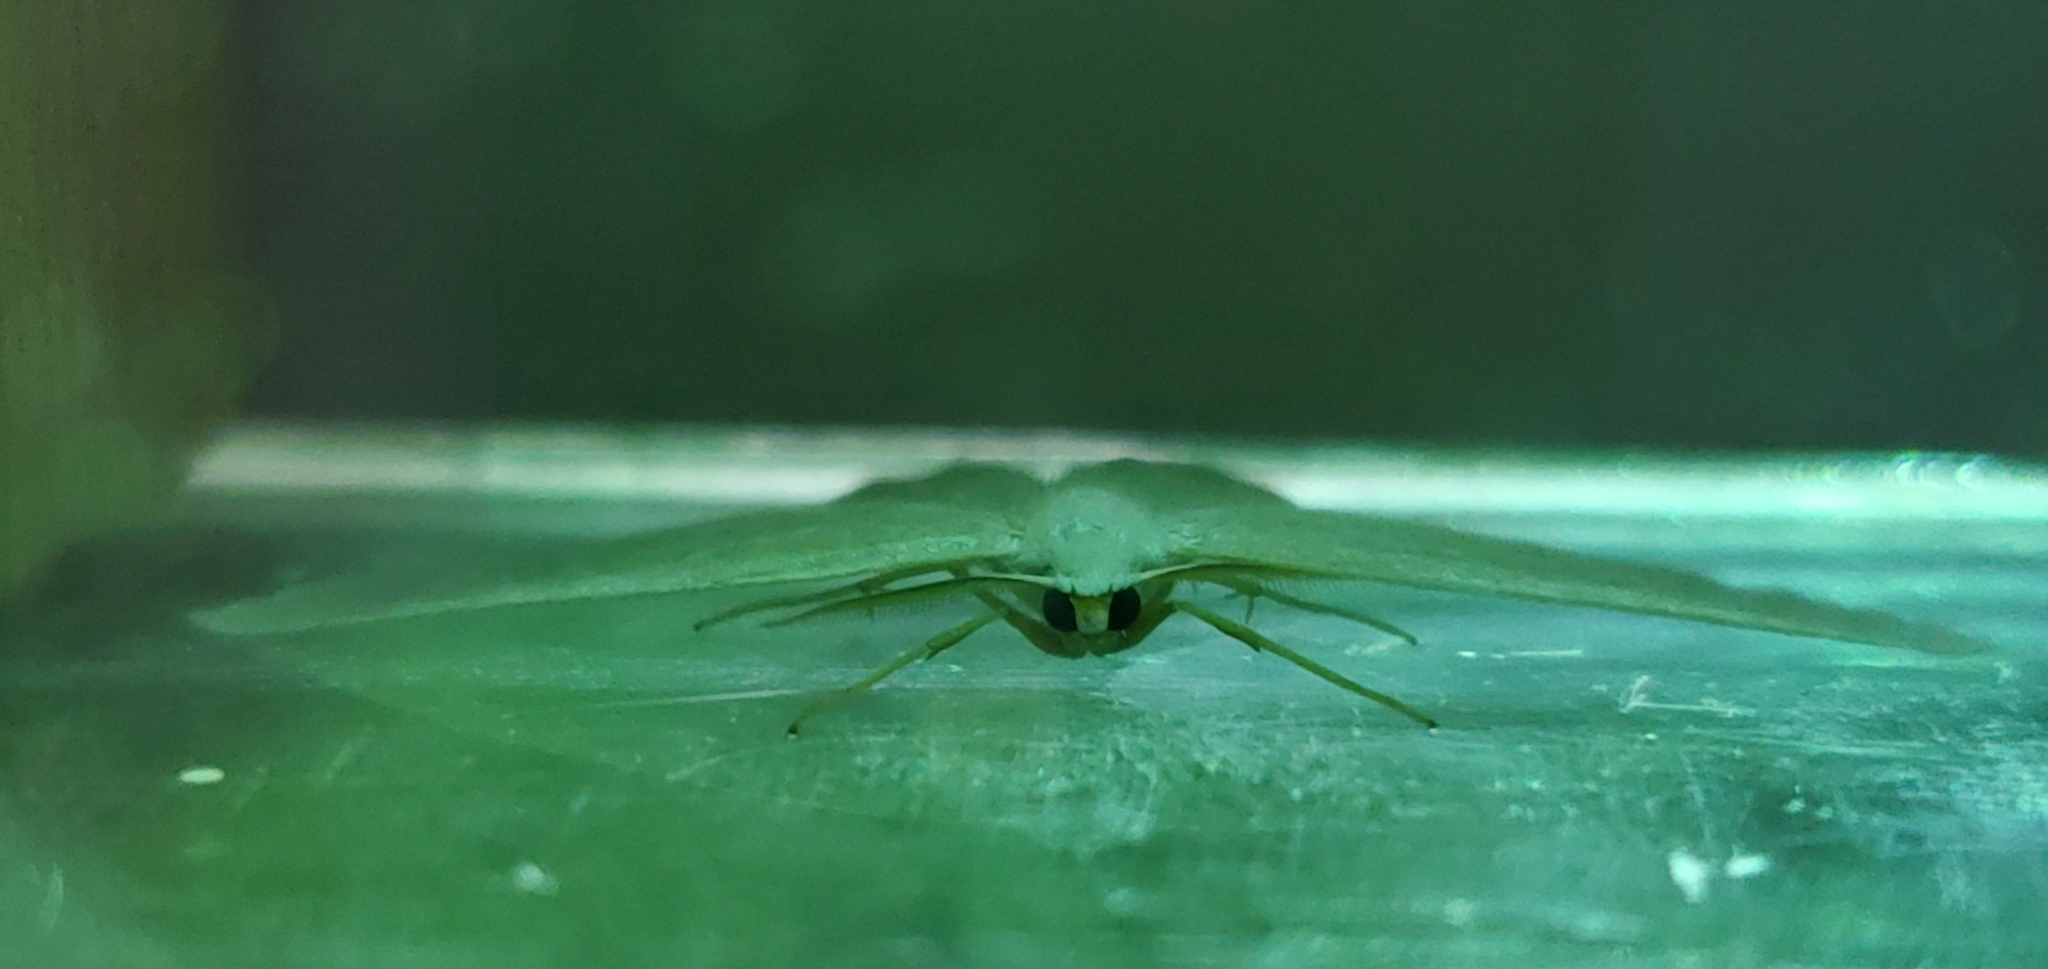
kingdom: Animalia
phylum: Arthropoda
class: Insecta
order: Lepidoptera
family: Geometridae
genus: Campaea
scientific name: Campaea perlata
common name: Fringed looper
